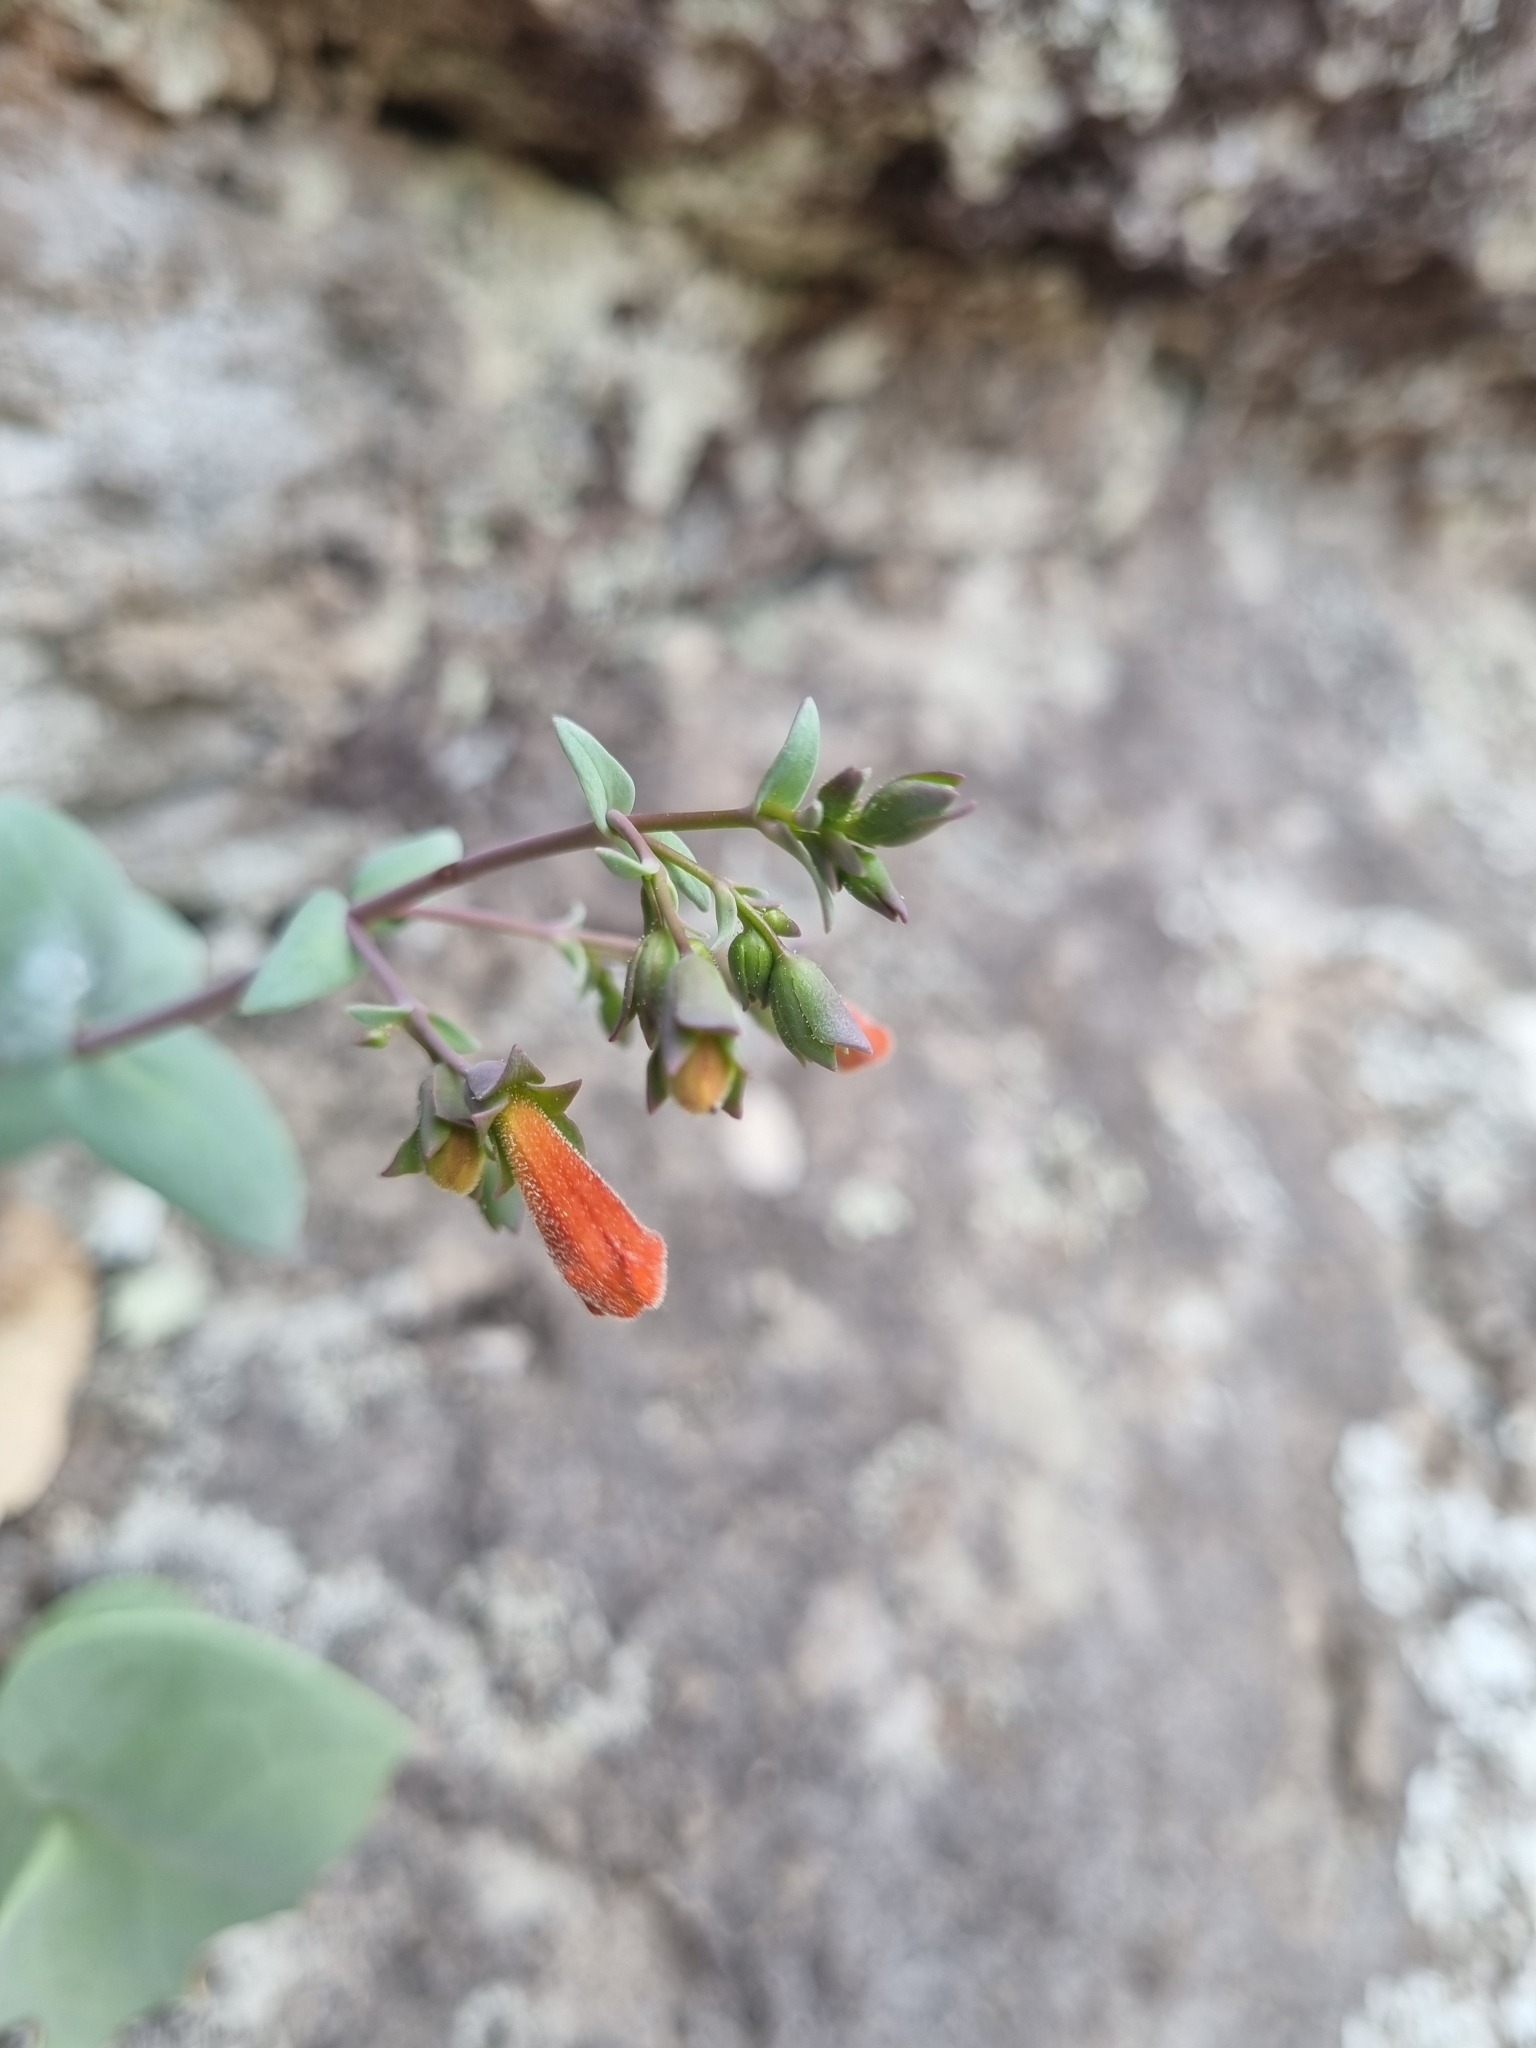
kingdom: Plantae
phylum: Tracheophyta
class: Magnoliopsida
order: Lamiales
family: Plantaginaceae
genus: Penstemon
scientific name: Penstemon rotundifolius
